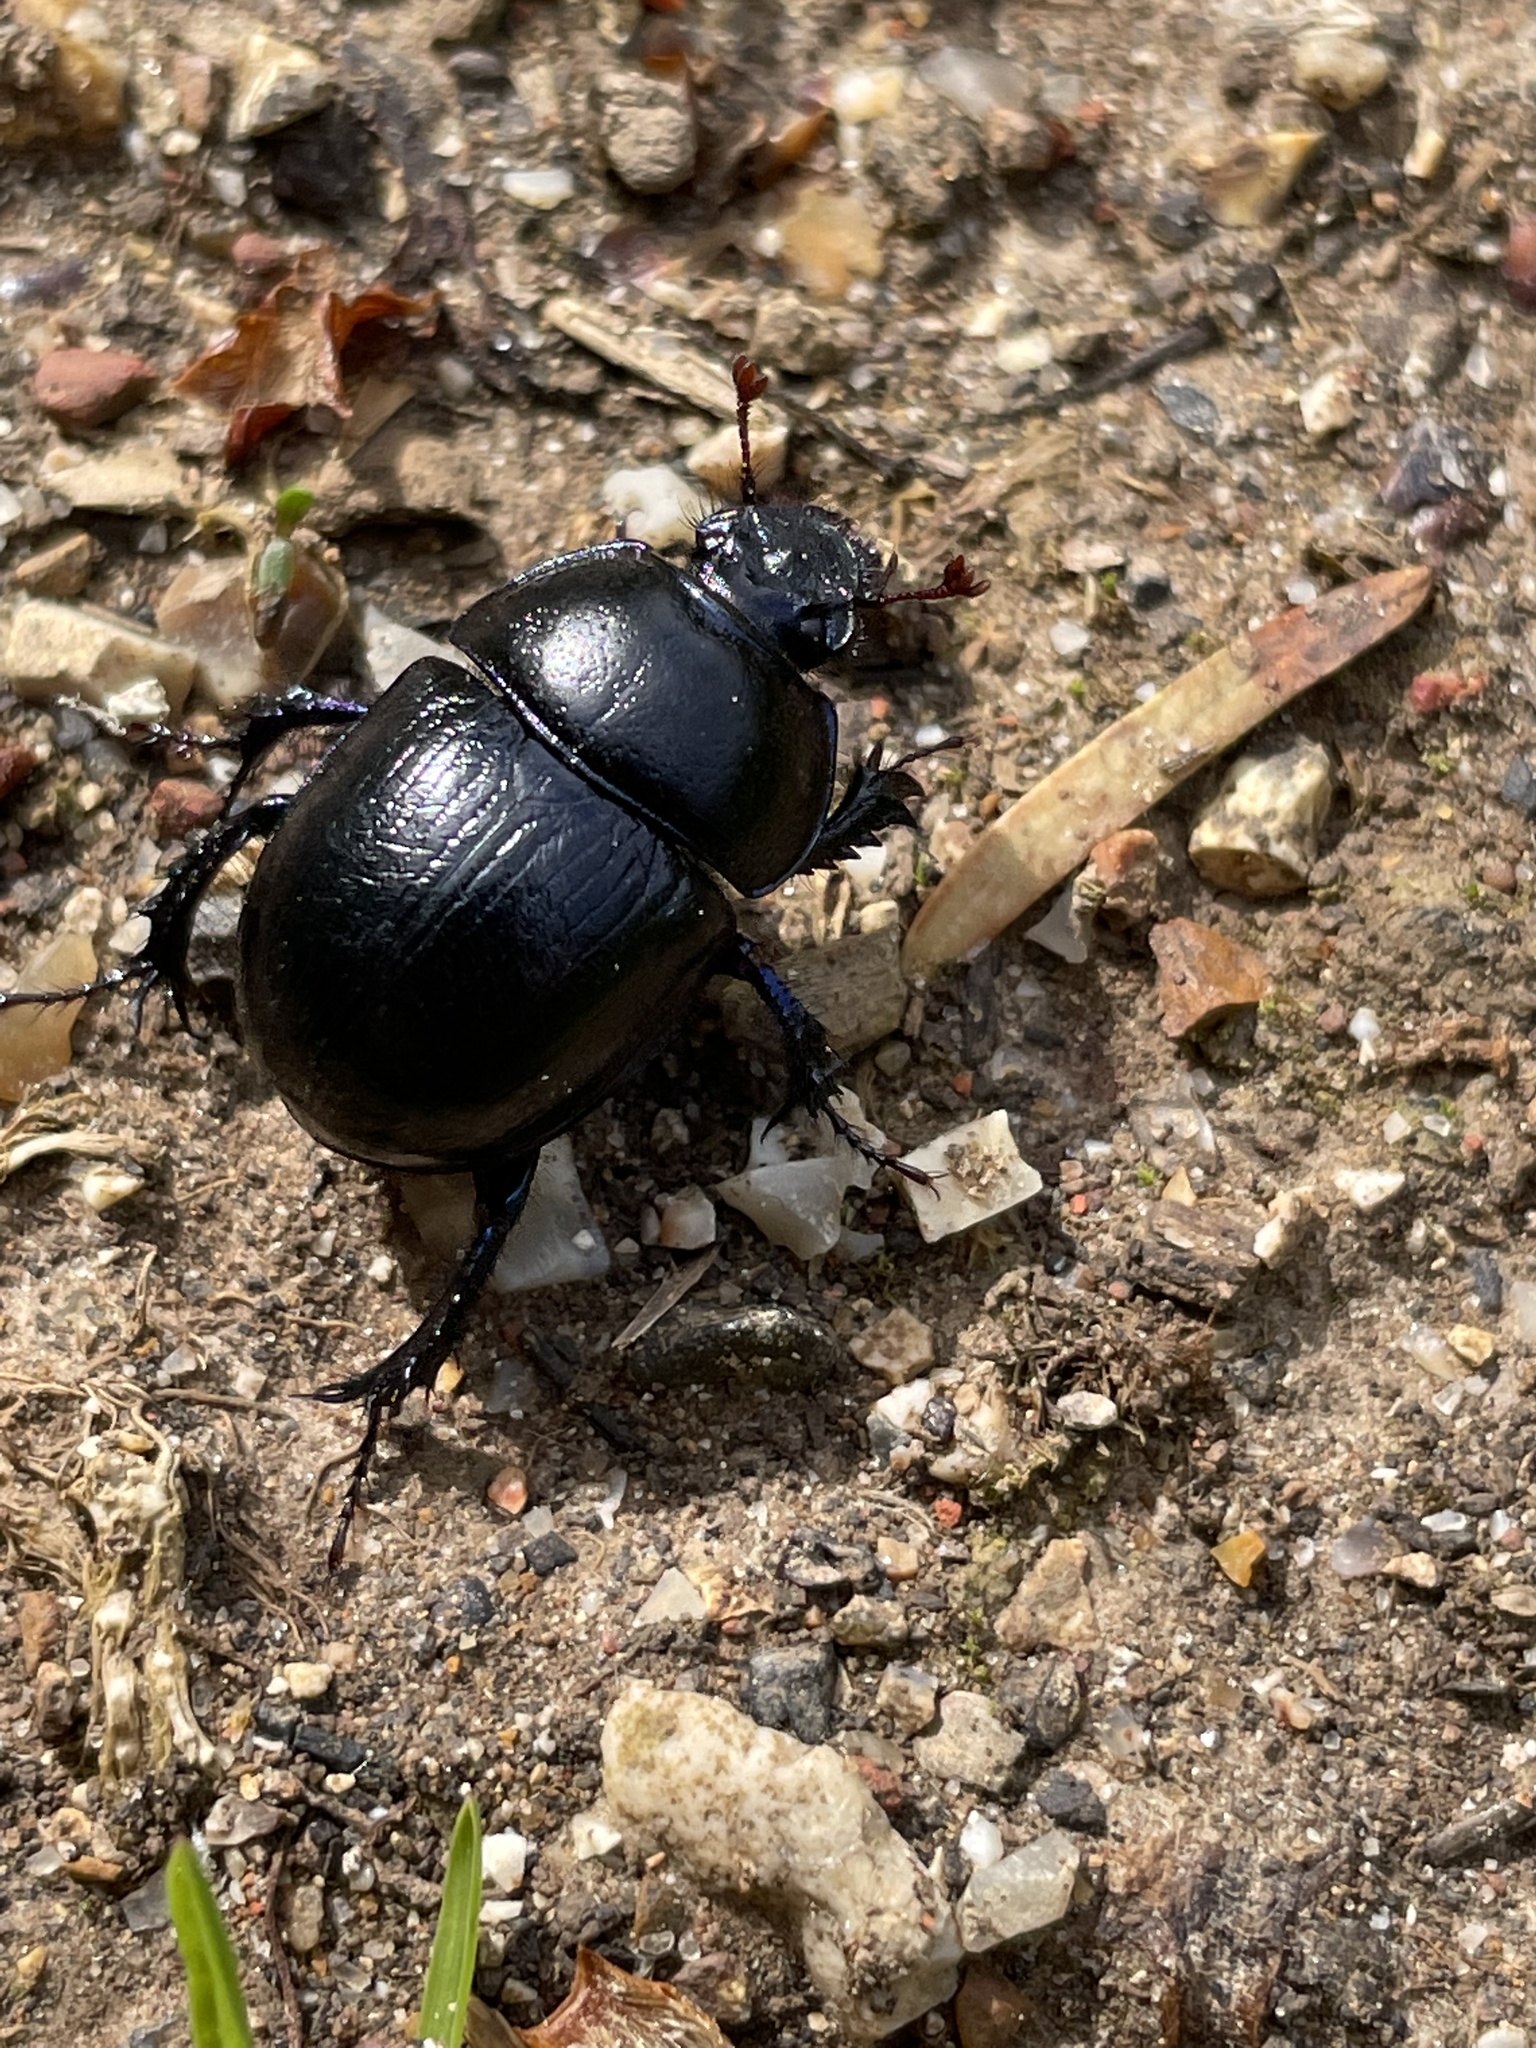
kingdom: Animalia
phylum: Arthropoda
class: Insecta
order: Coleoptera
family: Geotrupidae
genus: Anoplotrupes
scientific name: Anoplotrupes stercorosus
